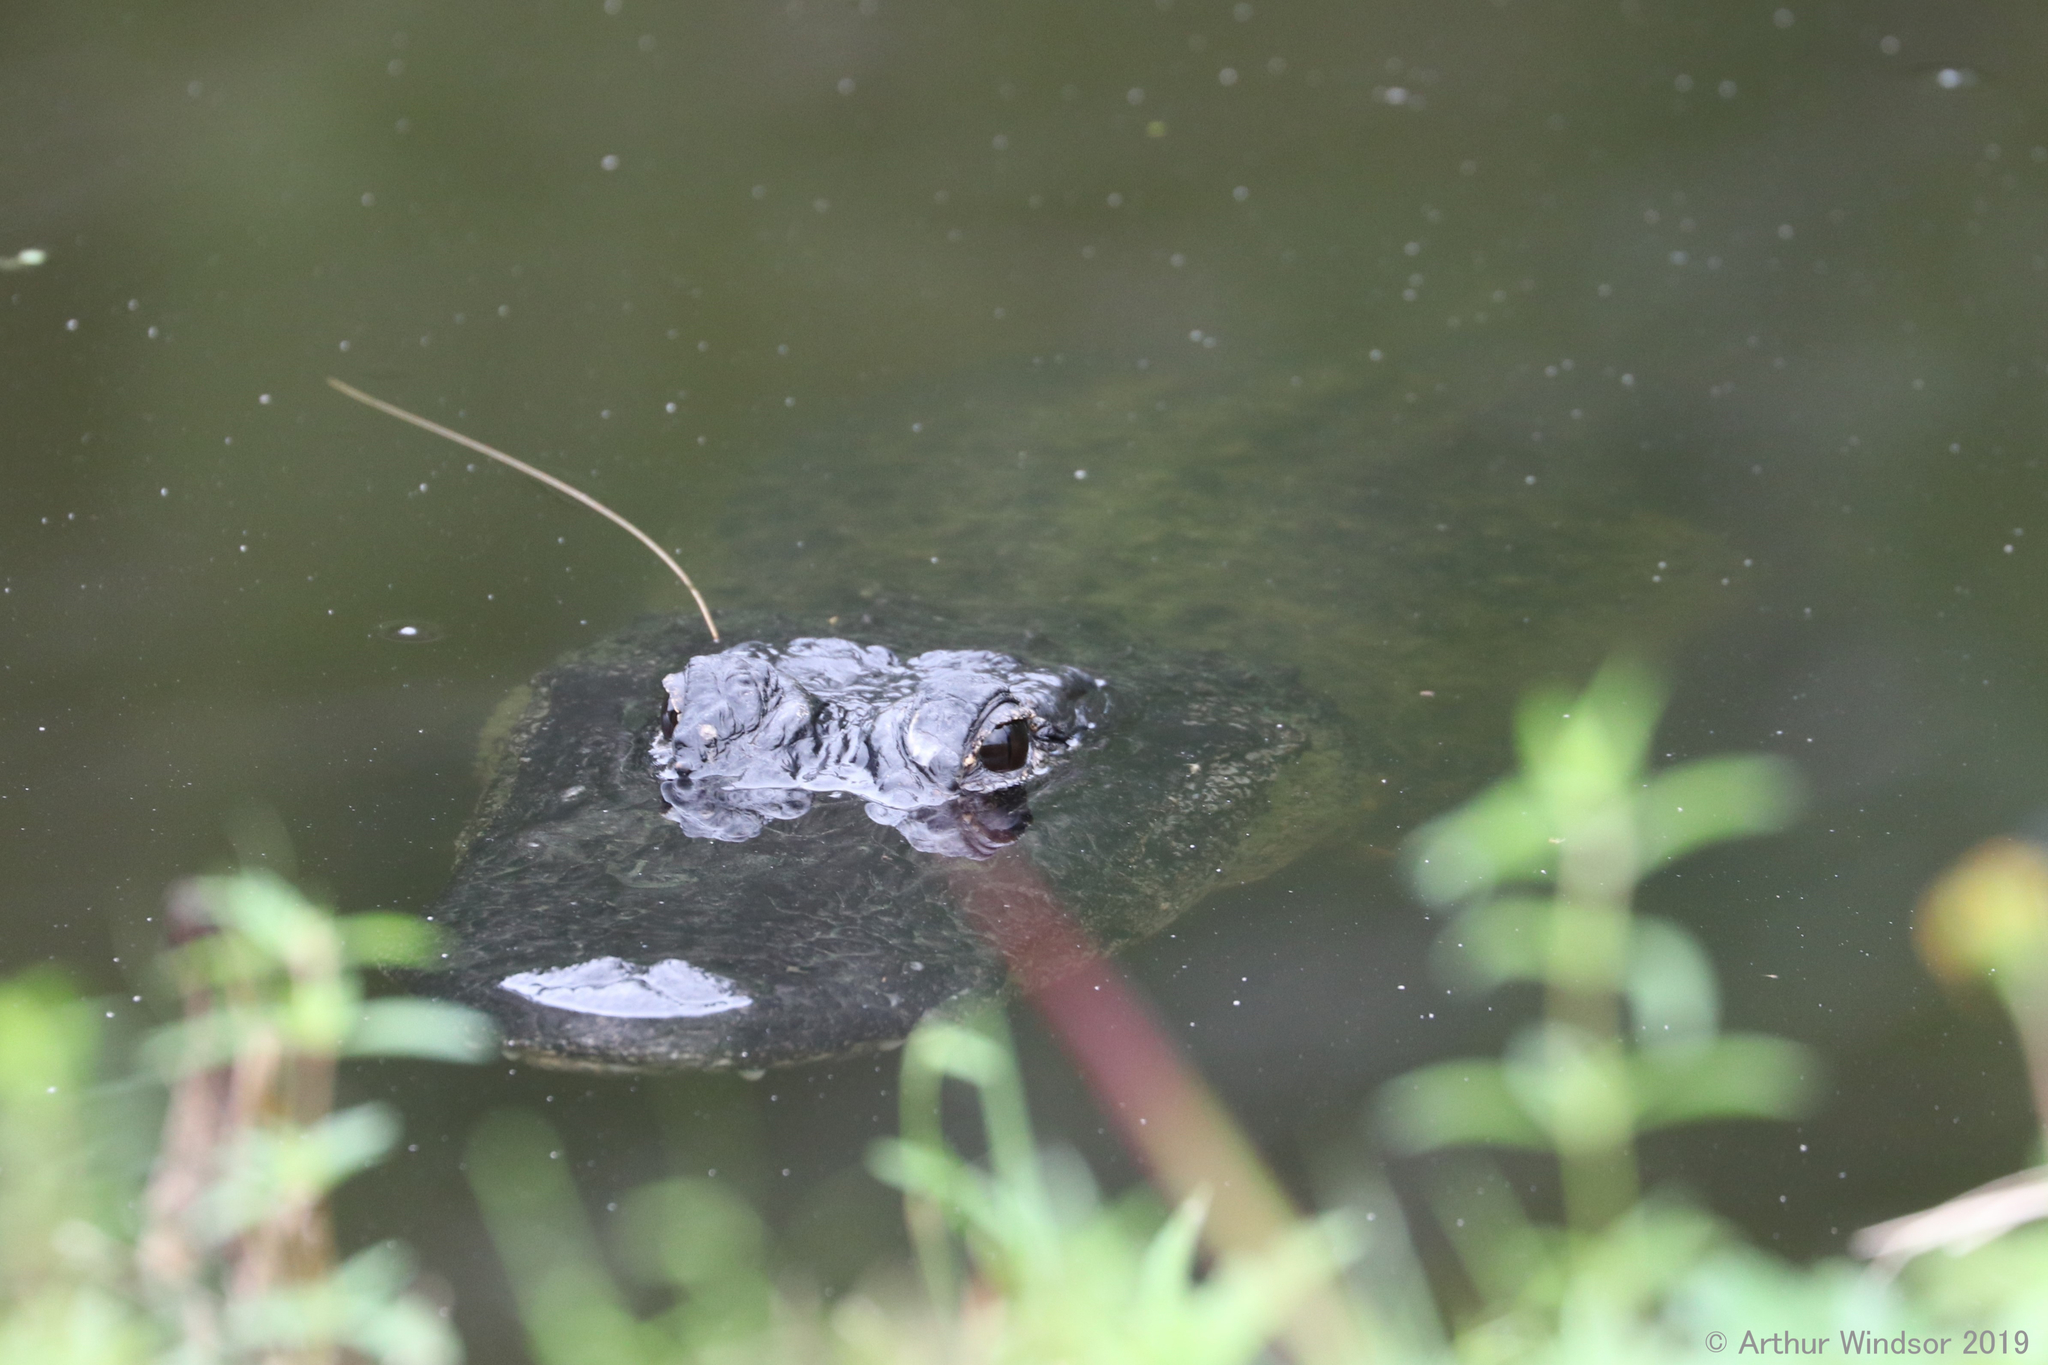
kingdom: Animalia
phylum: Chordata
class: Crocodylia
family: Alligatoridae
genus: Alligator
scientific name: Alligator mississippiensis
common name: American alligator
